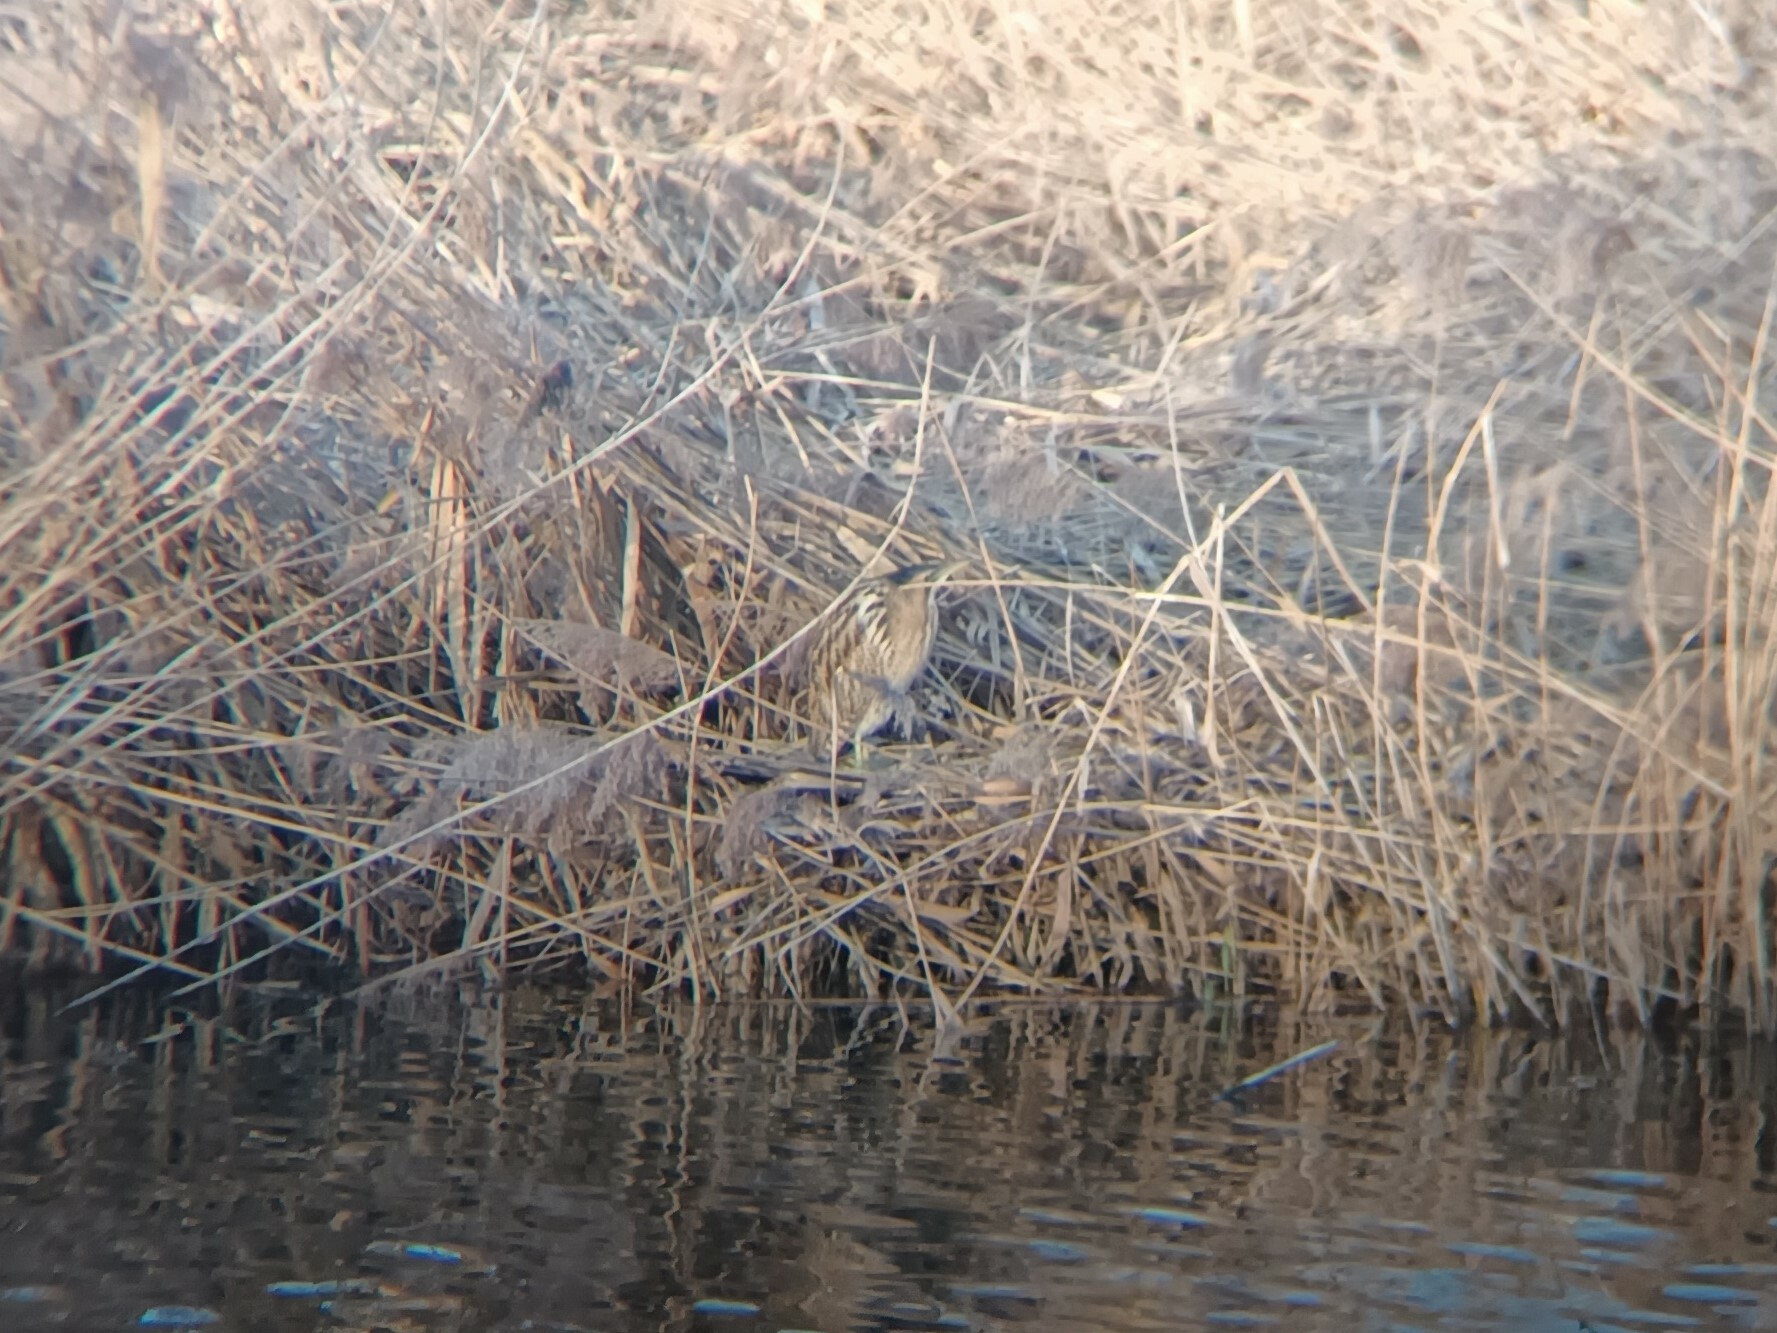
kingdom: Animalia
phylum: Chordata
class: Aves
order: Pelecaniformes
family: Ardeidae
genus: Botaurus
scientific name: Botaurus stellaris
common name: Eurasian bittern
